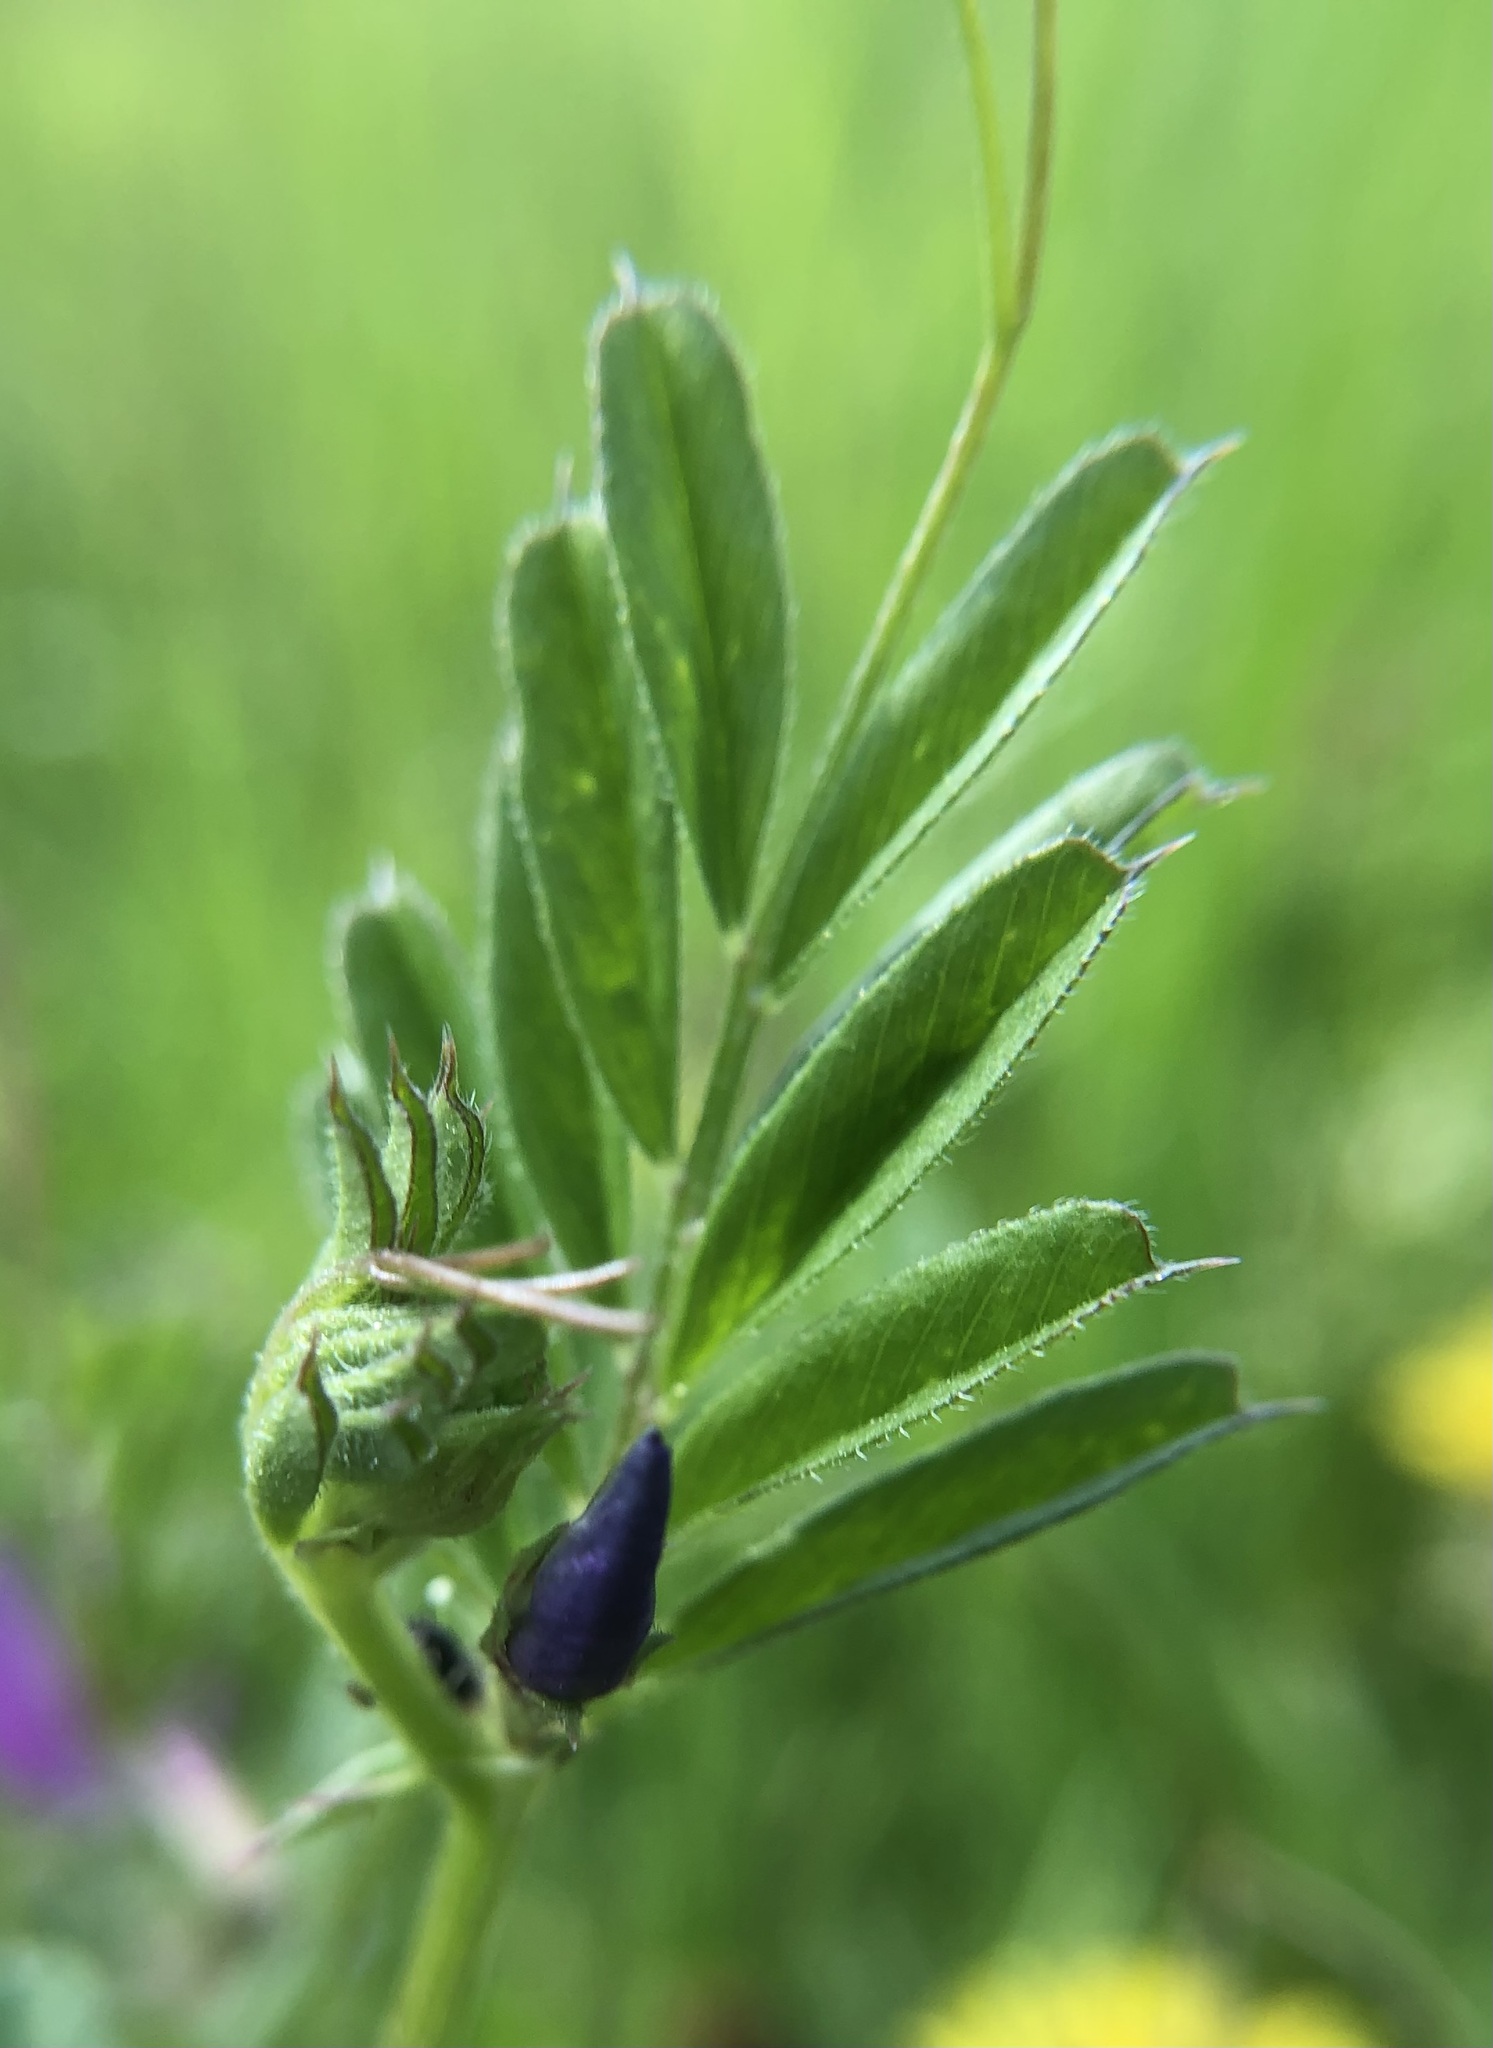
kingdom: Plantae
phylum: Tracheophyta
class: Magnoliopsida
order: Fabales
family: Fabaceae
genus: Vicia
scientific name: Vicia sativa
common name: Garden vetch
